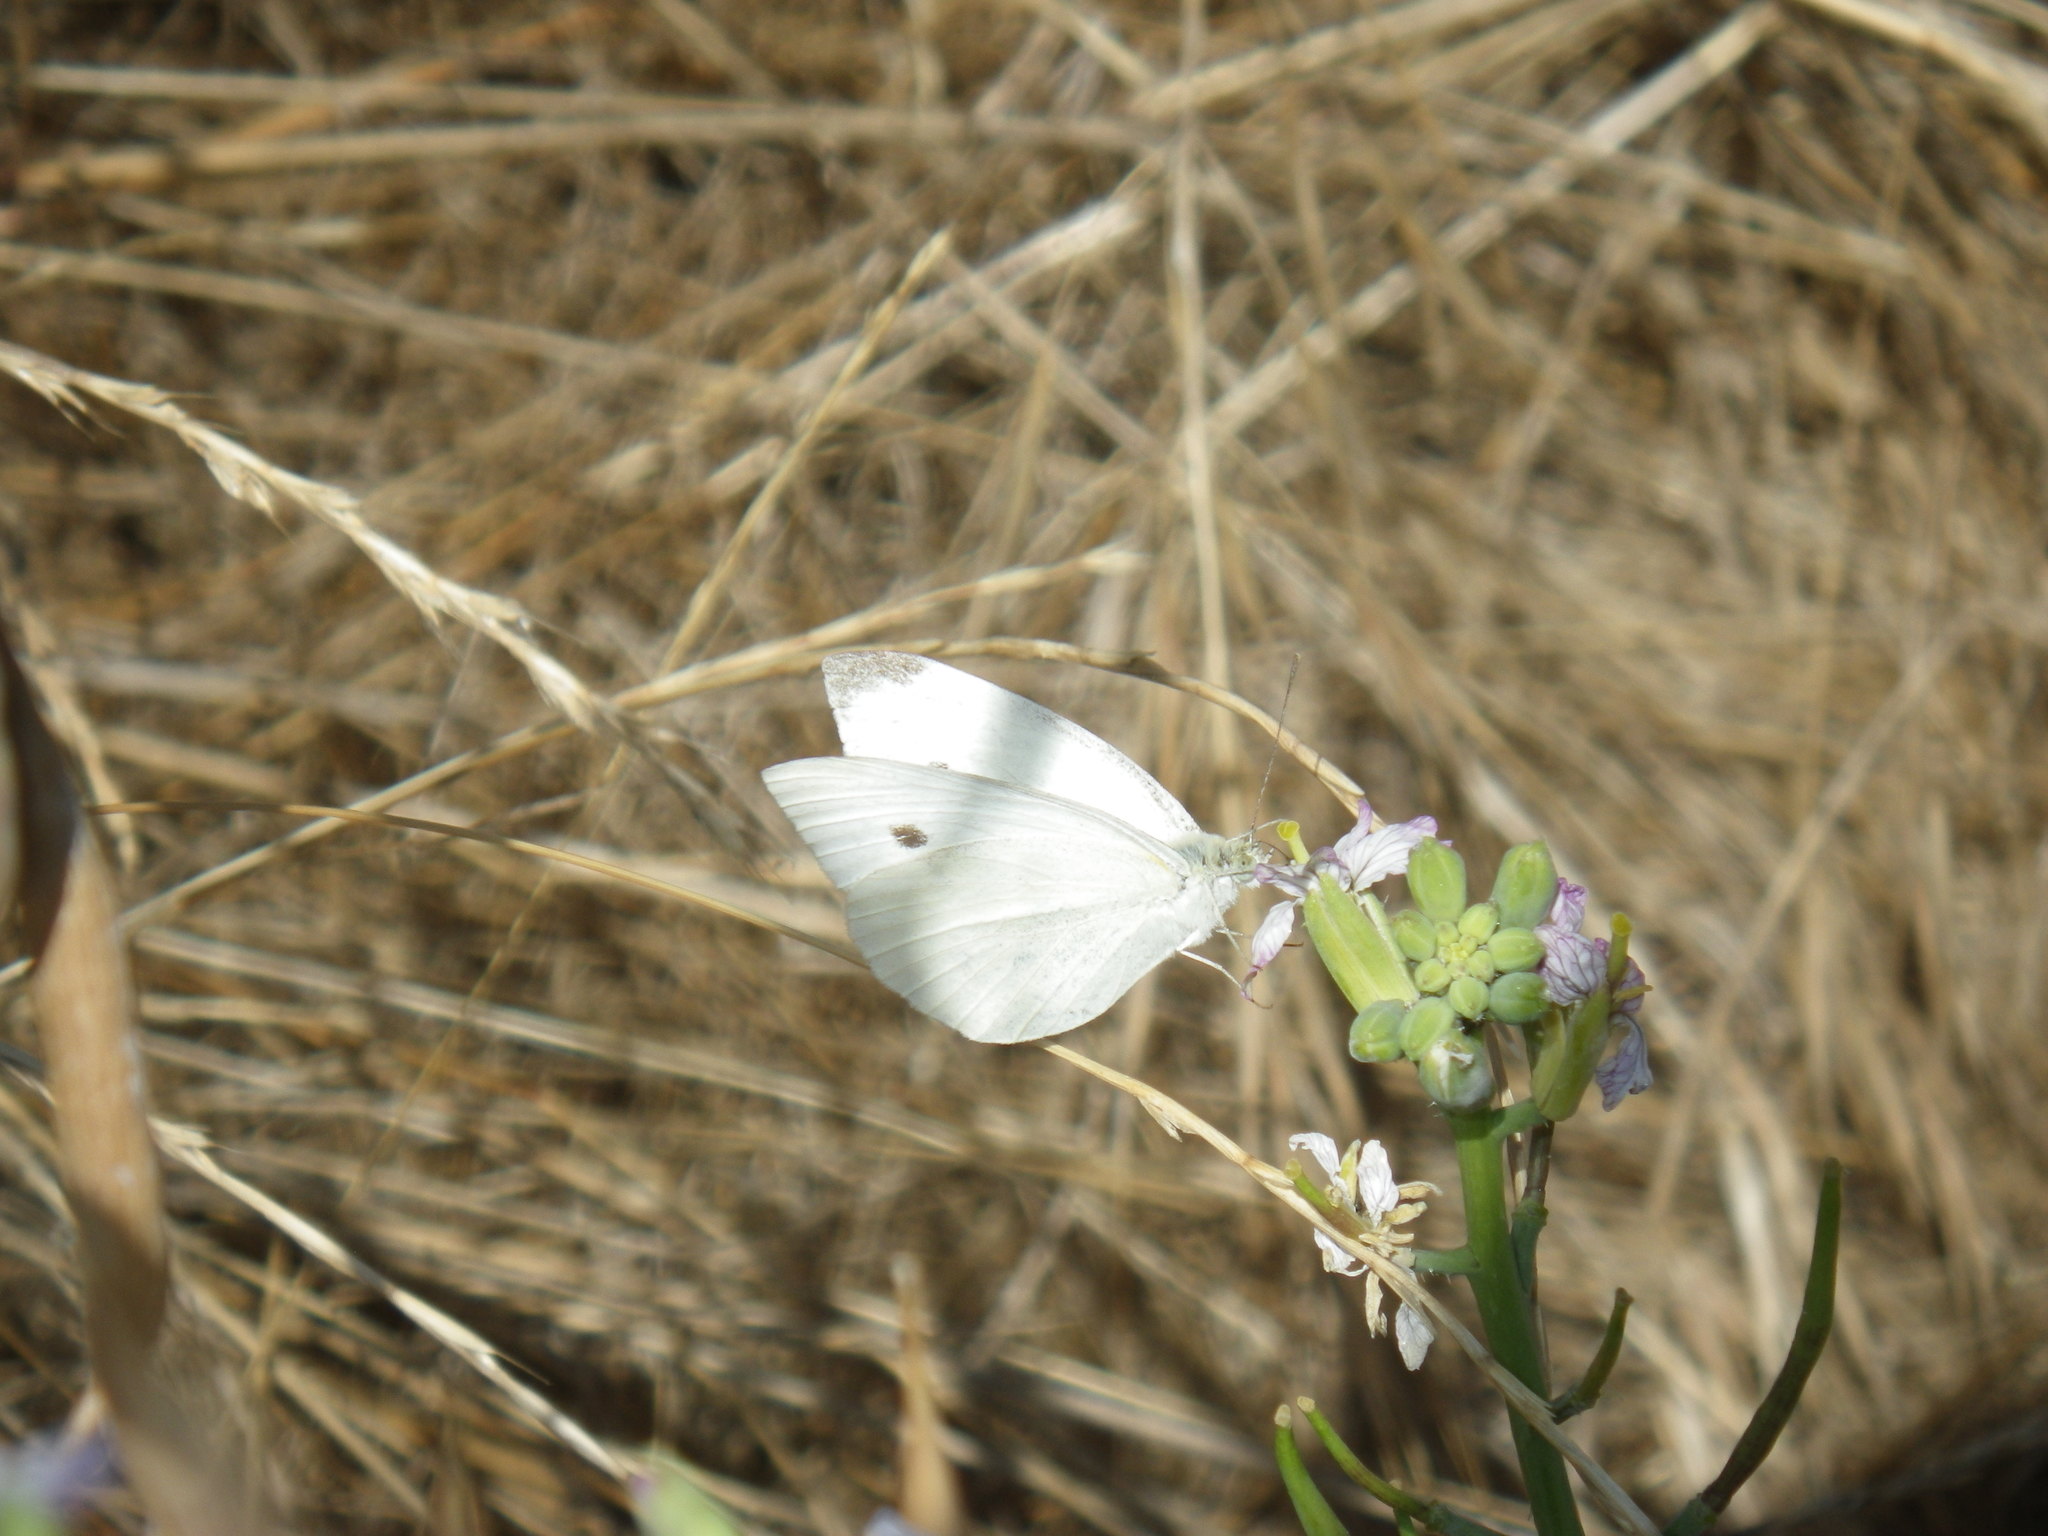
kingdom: Animalia
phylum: Arthropoda
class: Insecta
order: Lepidoptera
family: Pieridae
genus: Pieris
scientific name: Pieris rapae
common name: Small white
